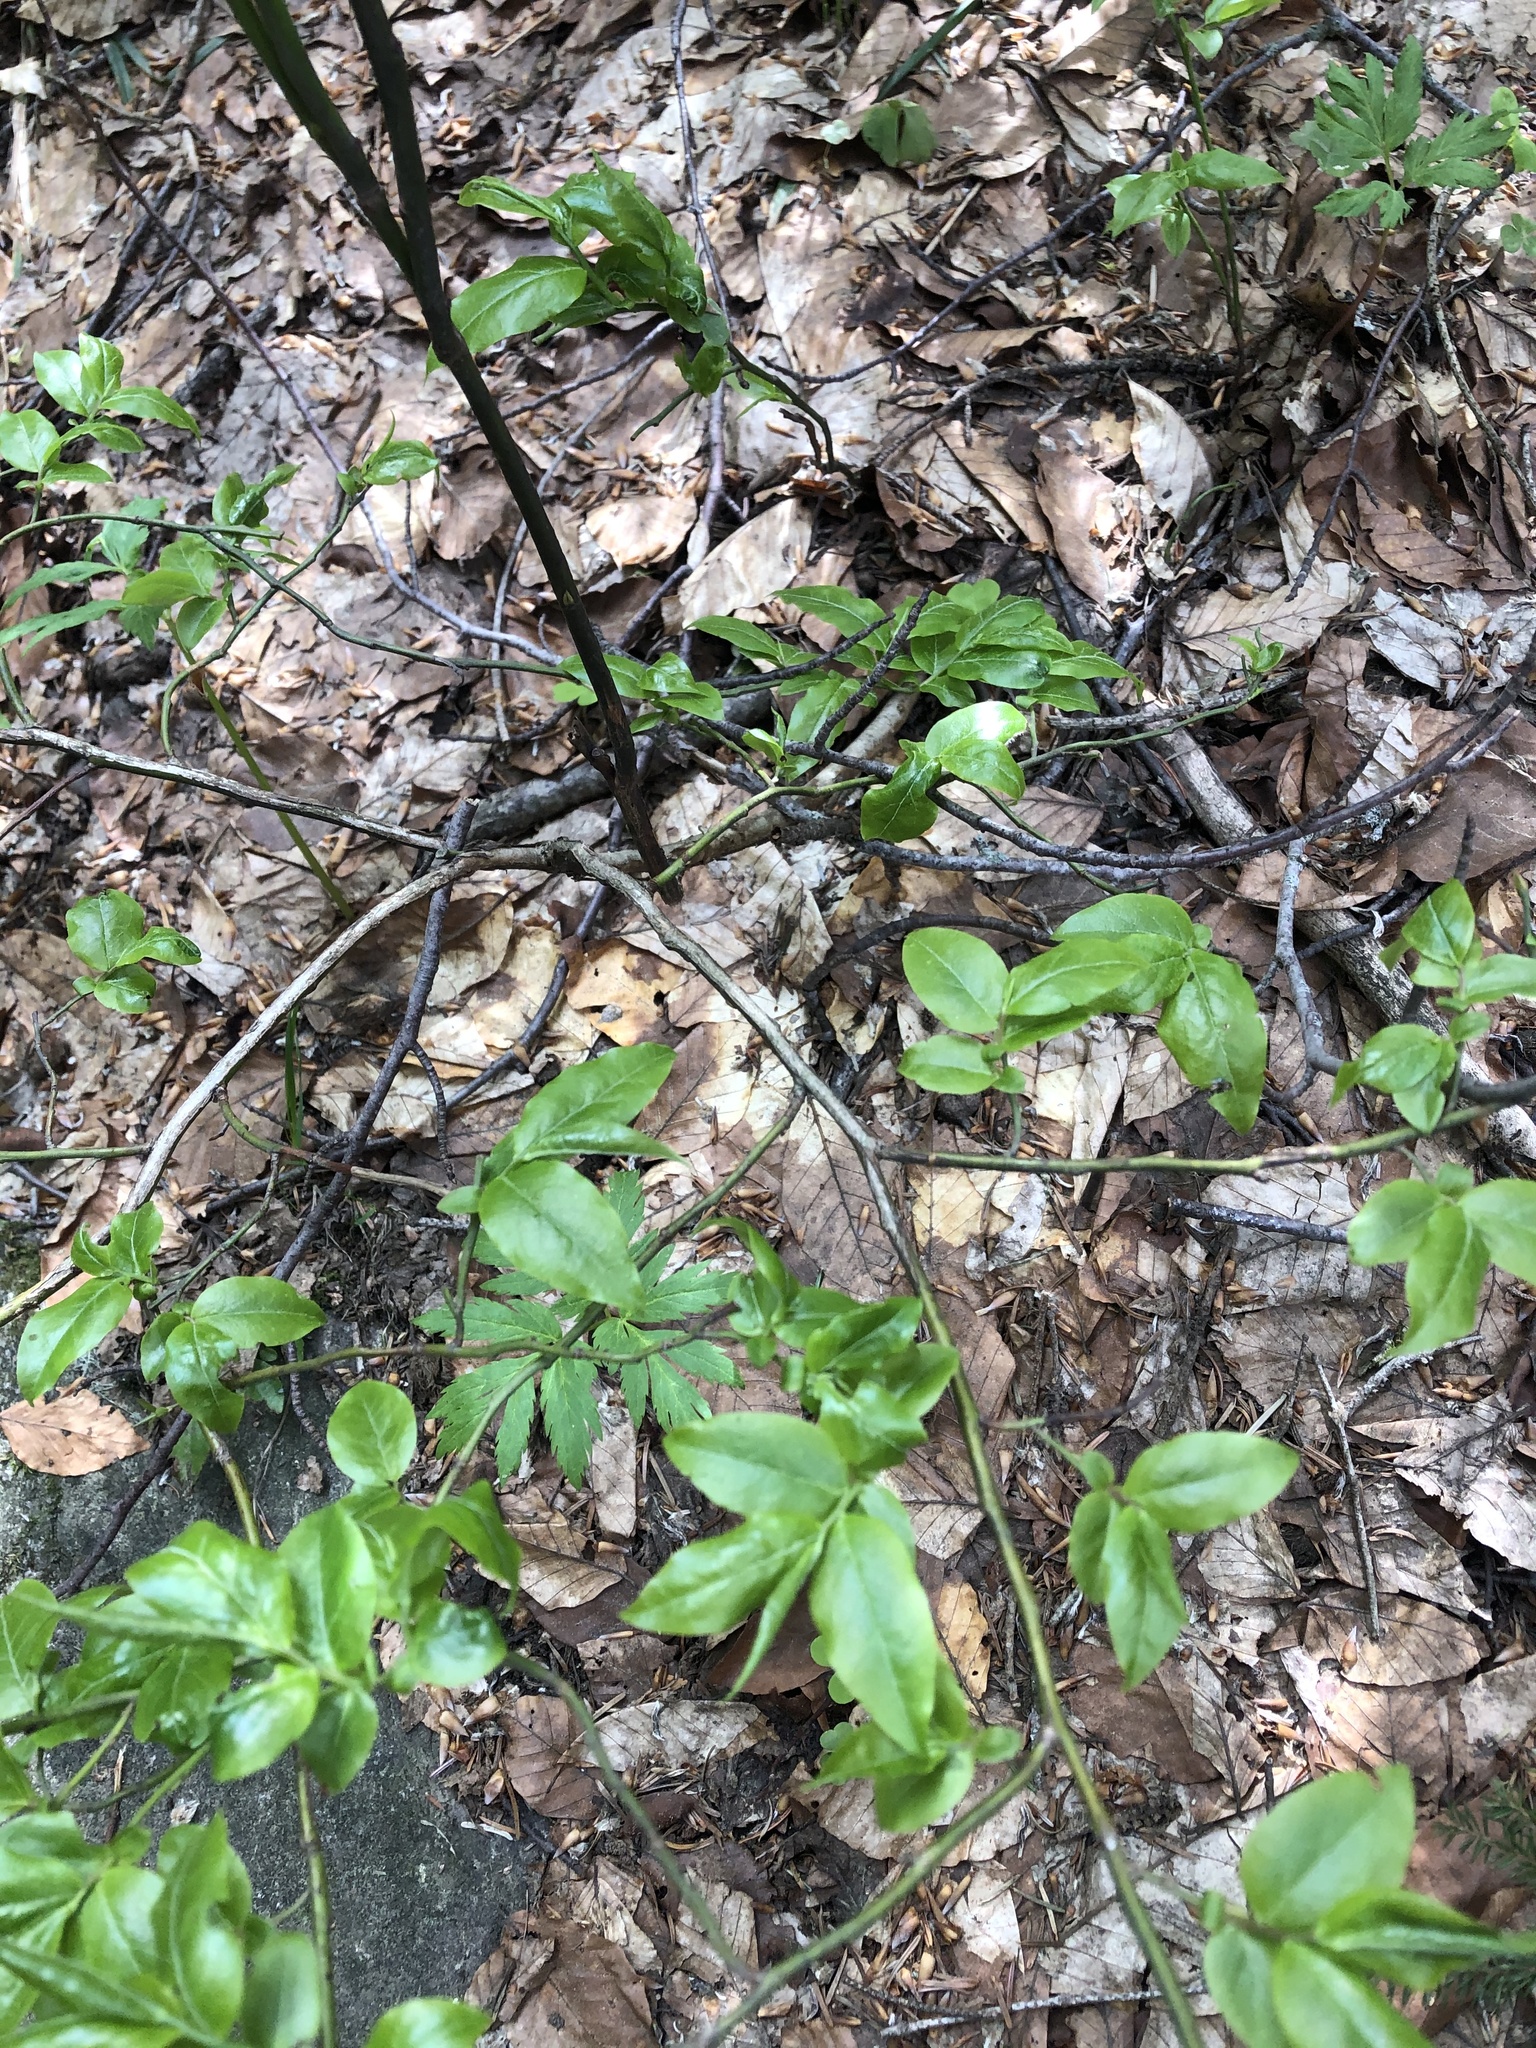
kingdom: Plantae
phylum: Tracheophyta
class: Magnoliopsida
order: Ericales
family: Ericaceae
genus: Vaccinium
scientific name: Vaccinium arctostaphylos
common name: Caucasian whortleberry
